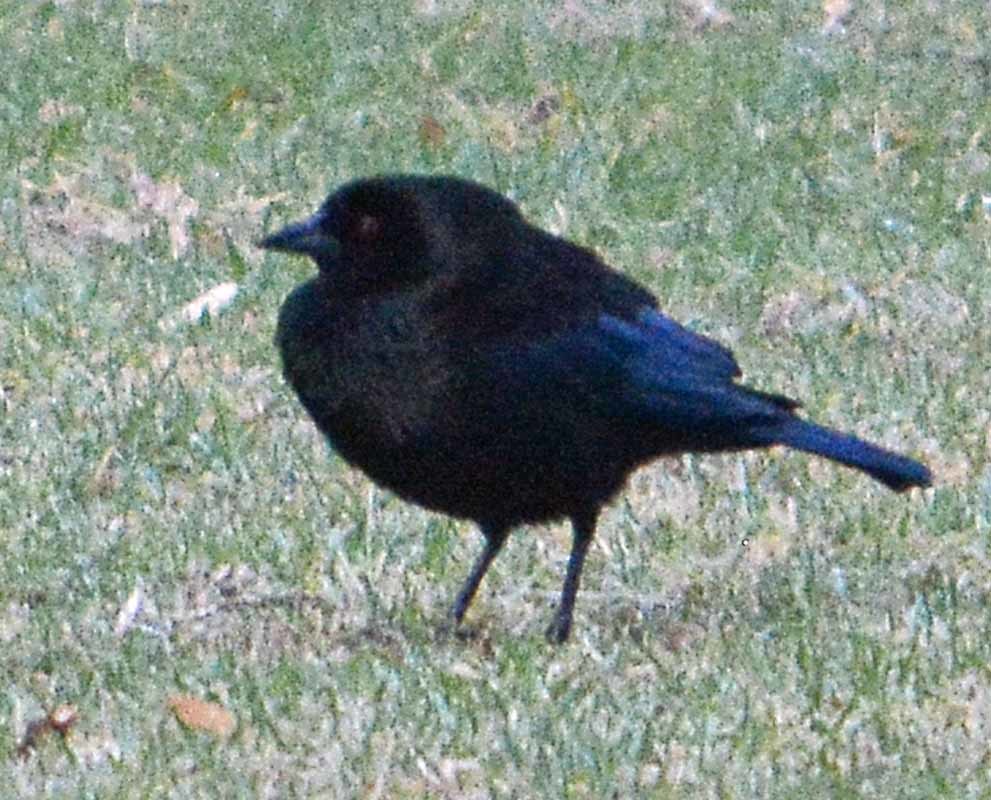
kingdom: Animalia
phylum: Chordata
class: Aves
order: Passeriformes
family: Icteridae
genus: Molothrus
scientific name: Molothrus aeneus
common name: Bronzed cowbird
